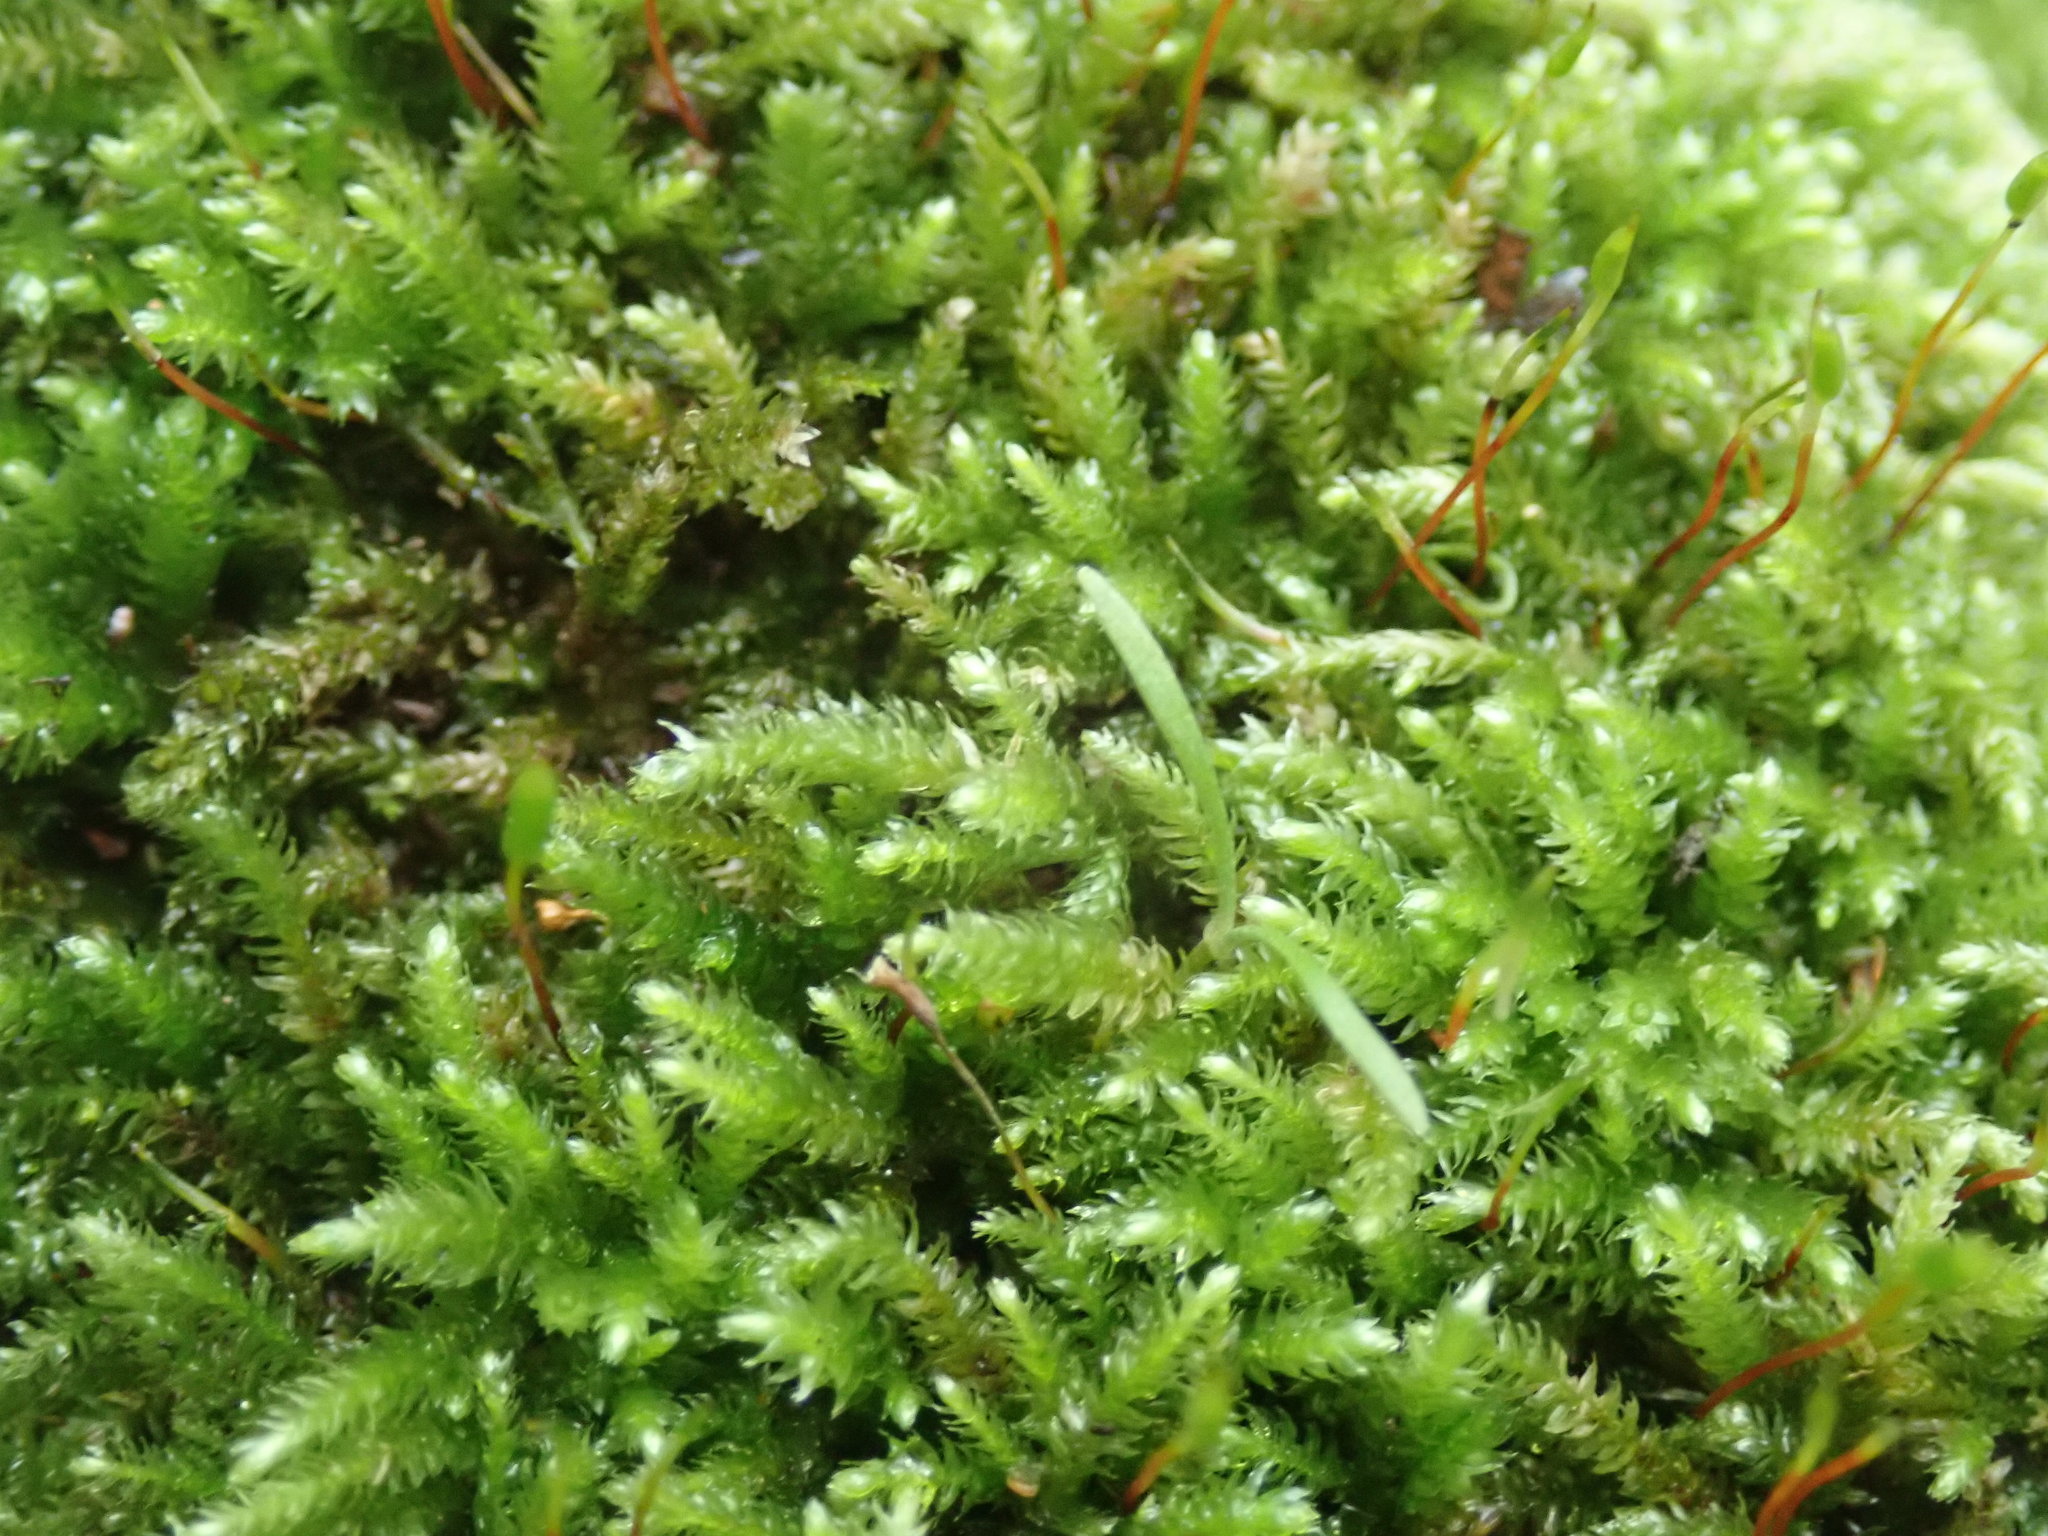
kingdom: Plantae
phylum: Bryophyta
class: Bryopsida
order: Hypnales
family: Brachytheciaceae
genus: Eurhynchiastrum
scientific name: Eurhynchiastrum pulchellum
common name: Elegant beaked moss
